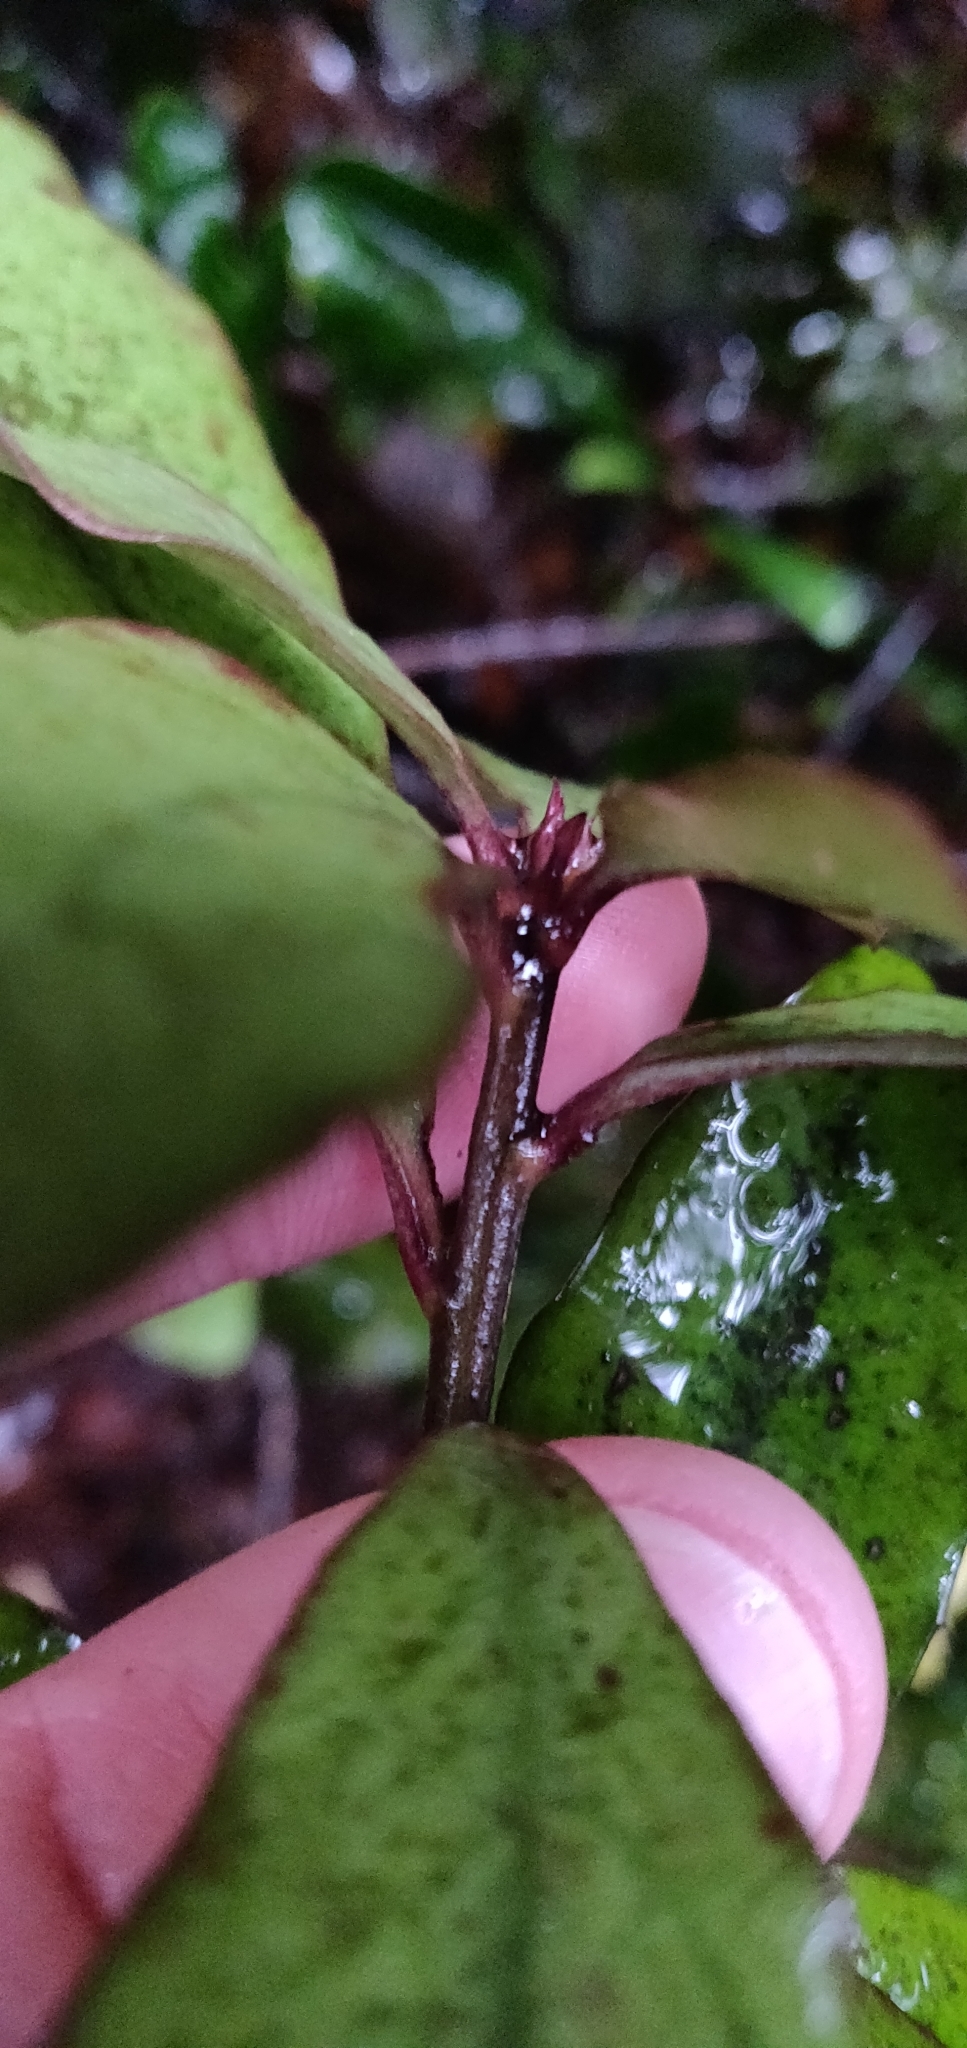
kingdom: Plantae
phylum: Tracheophyta
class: Magnoliopsida
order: Asterales
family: Alseuosmiaceae
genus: Alseuosmia
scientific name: Alseuosmia pusilla
